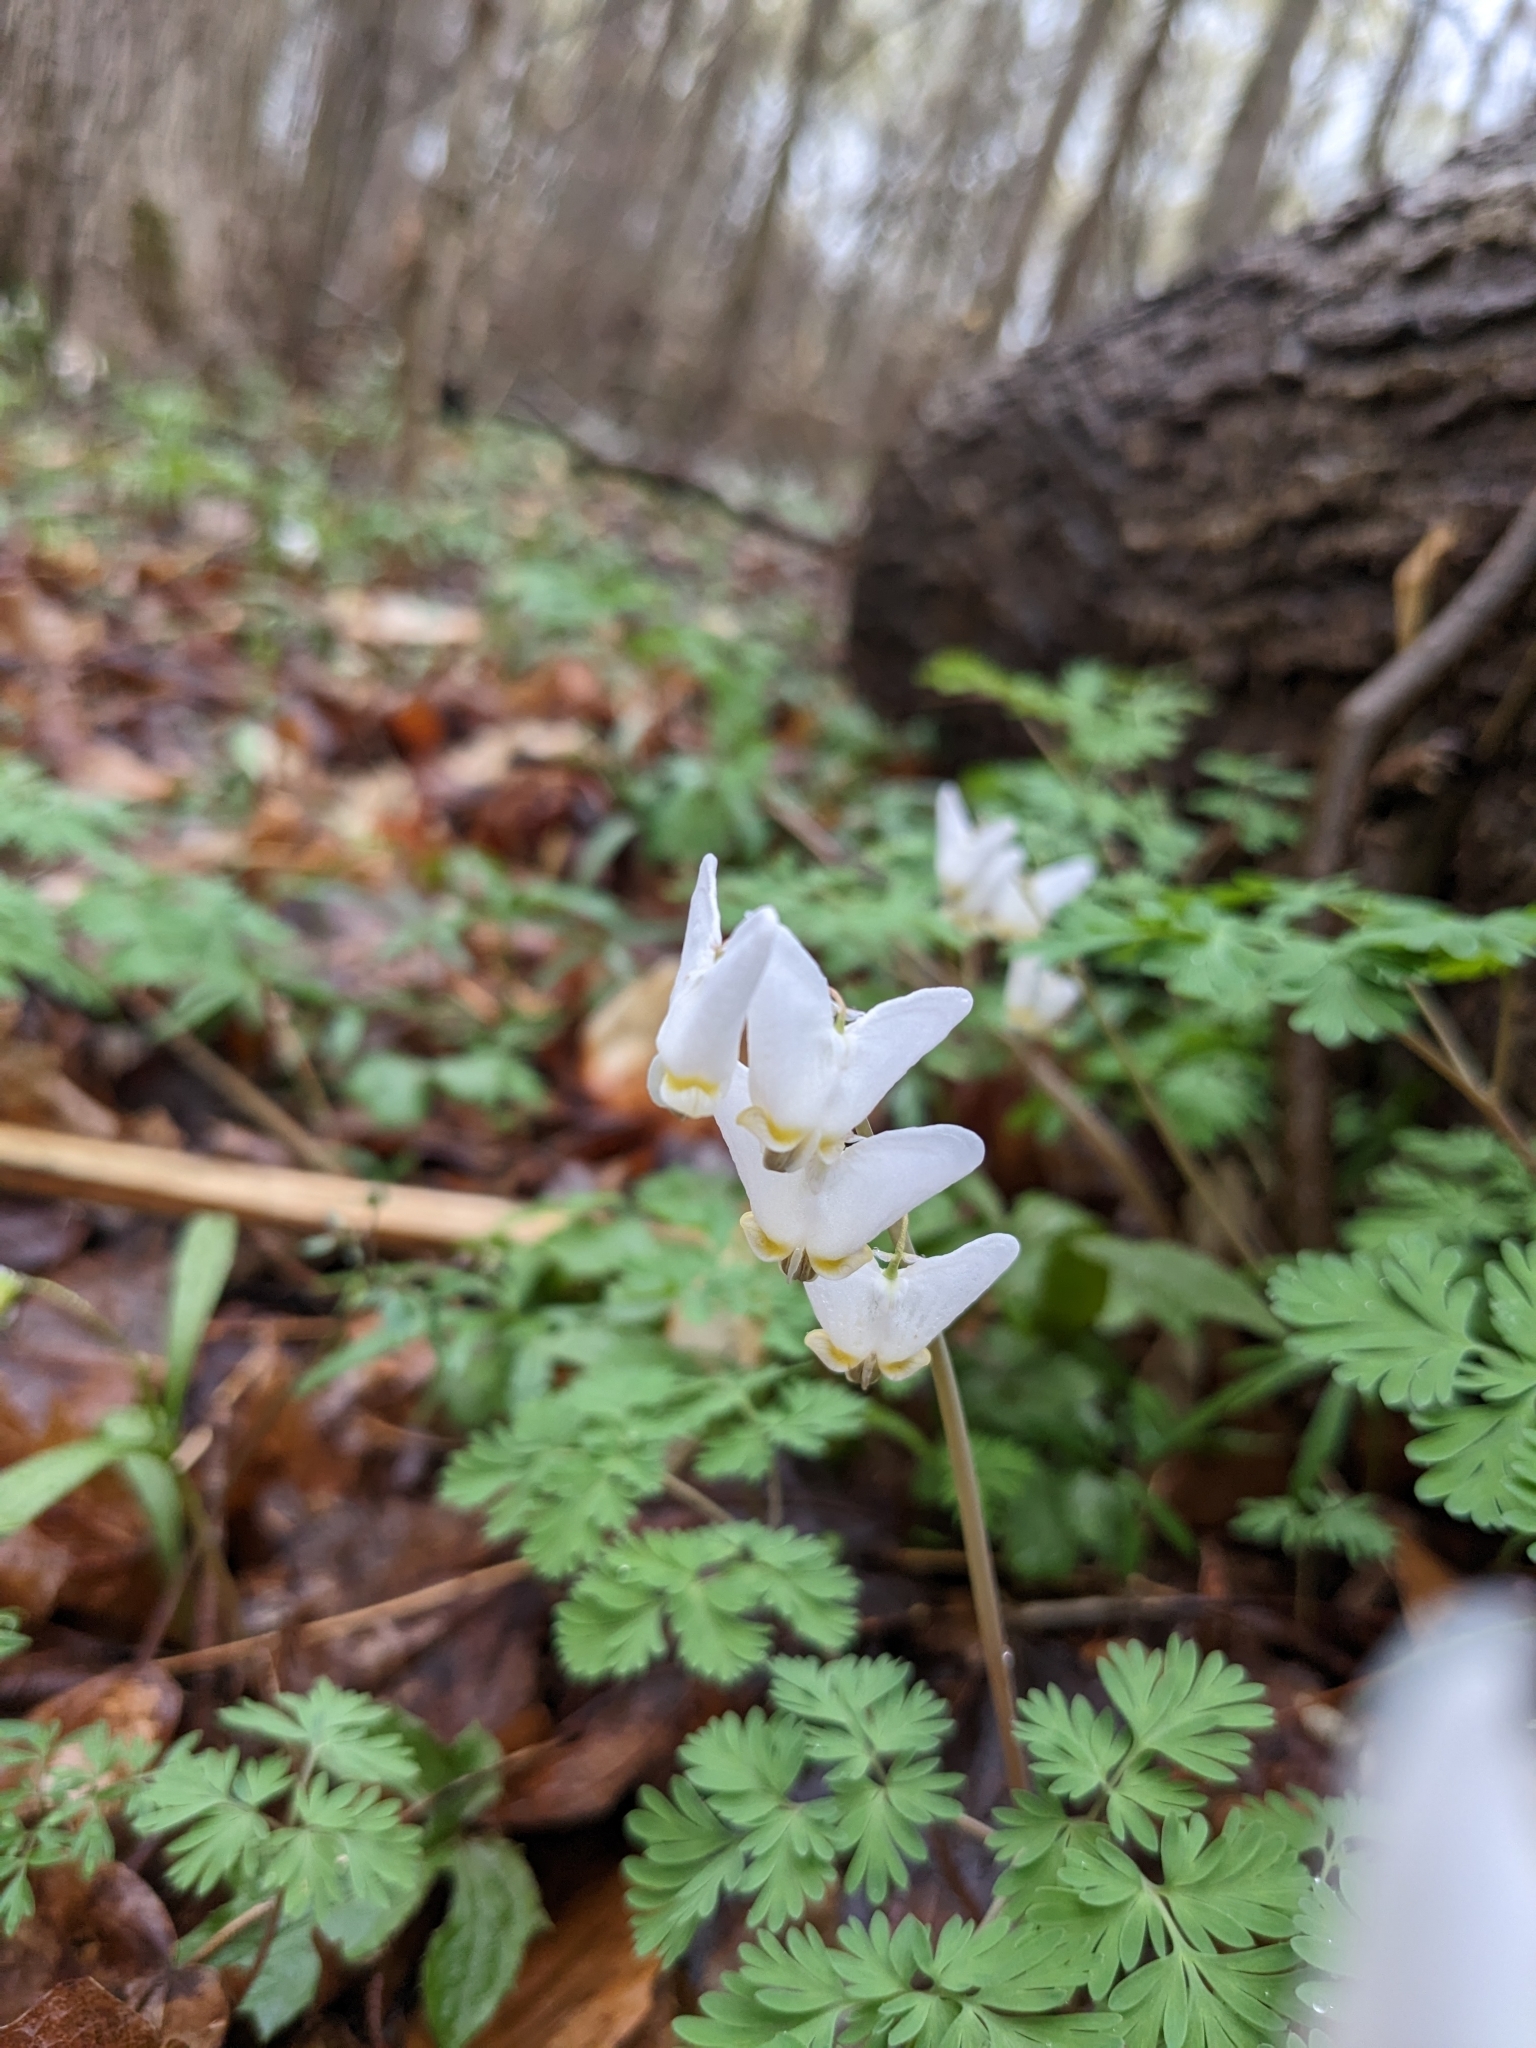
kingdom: Plantae
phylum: Tracheophyta
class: Magnoliopsida
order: Ranunculales
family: Papaveraceae
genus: Dicentra
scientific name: Dicentra cucullaria
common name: Dutchman's breeches
